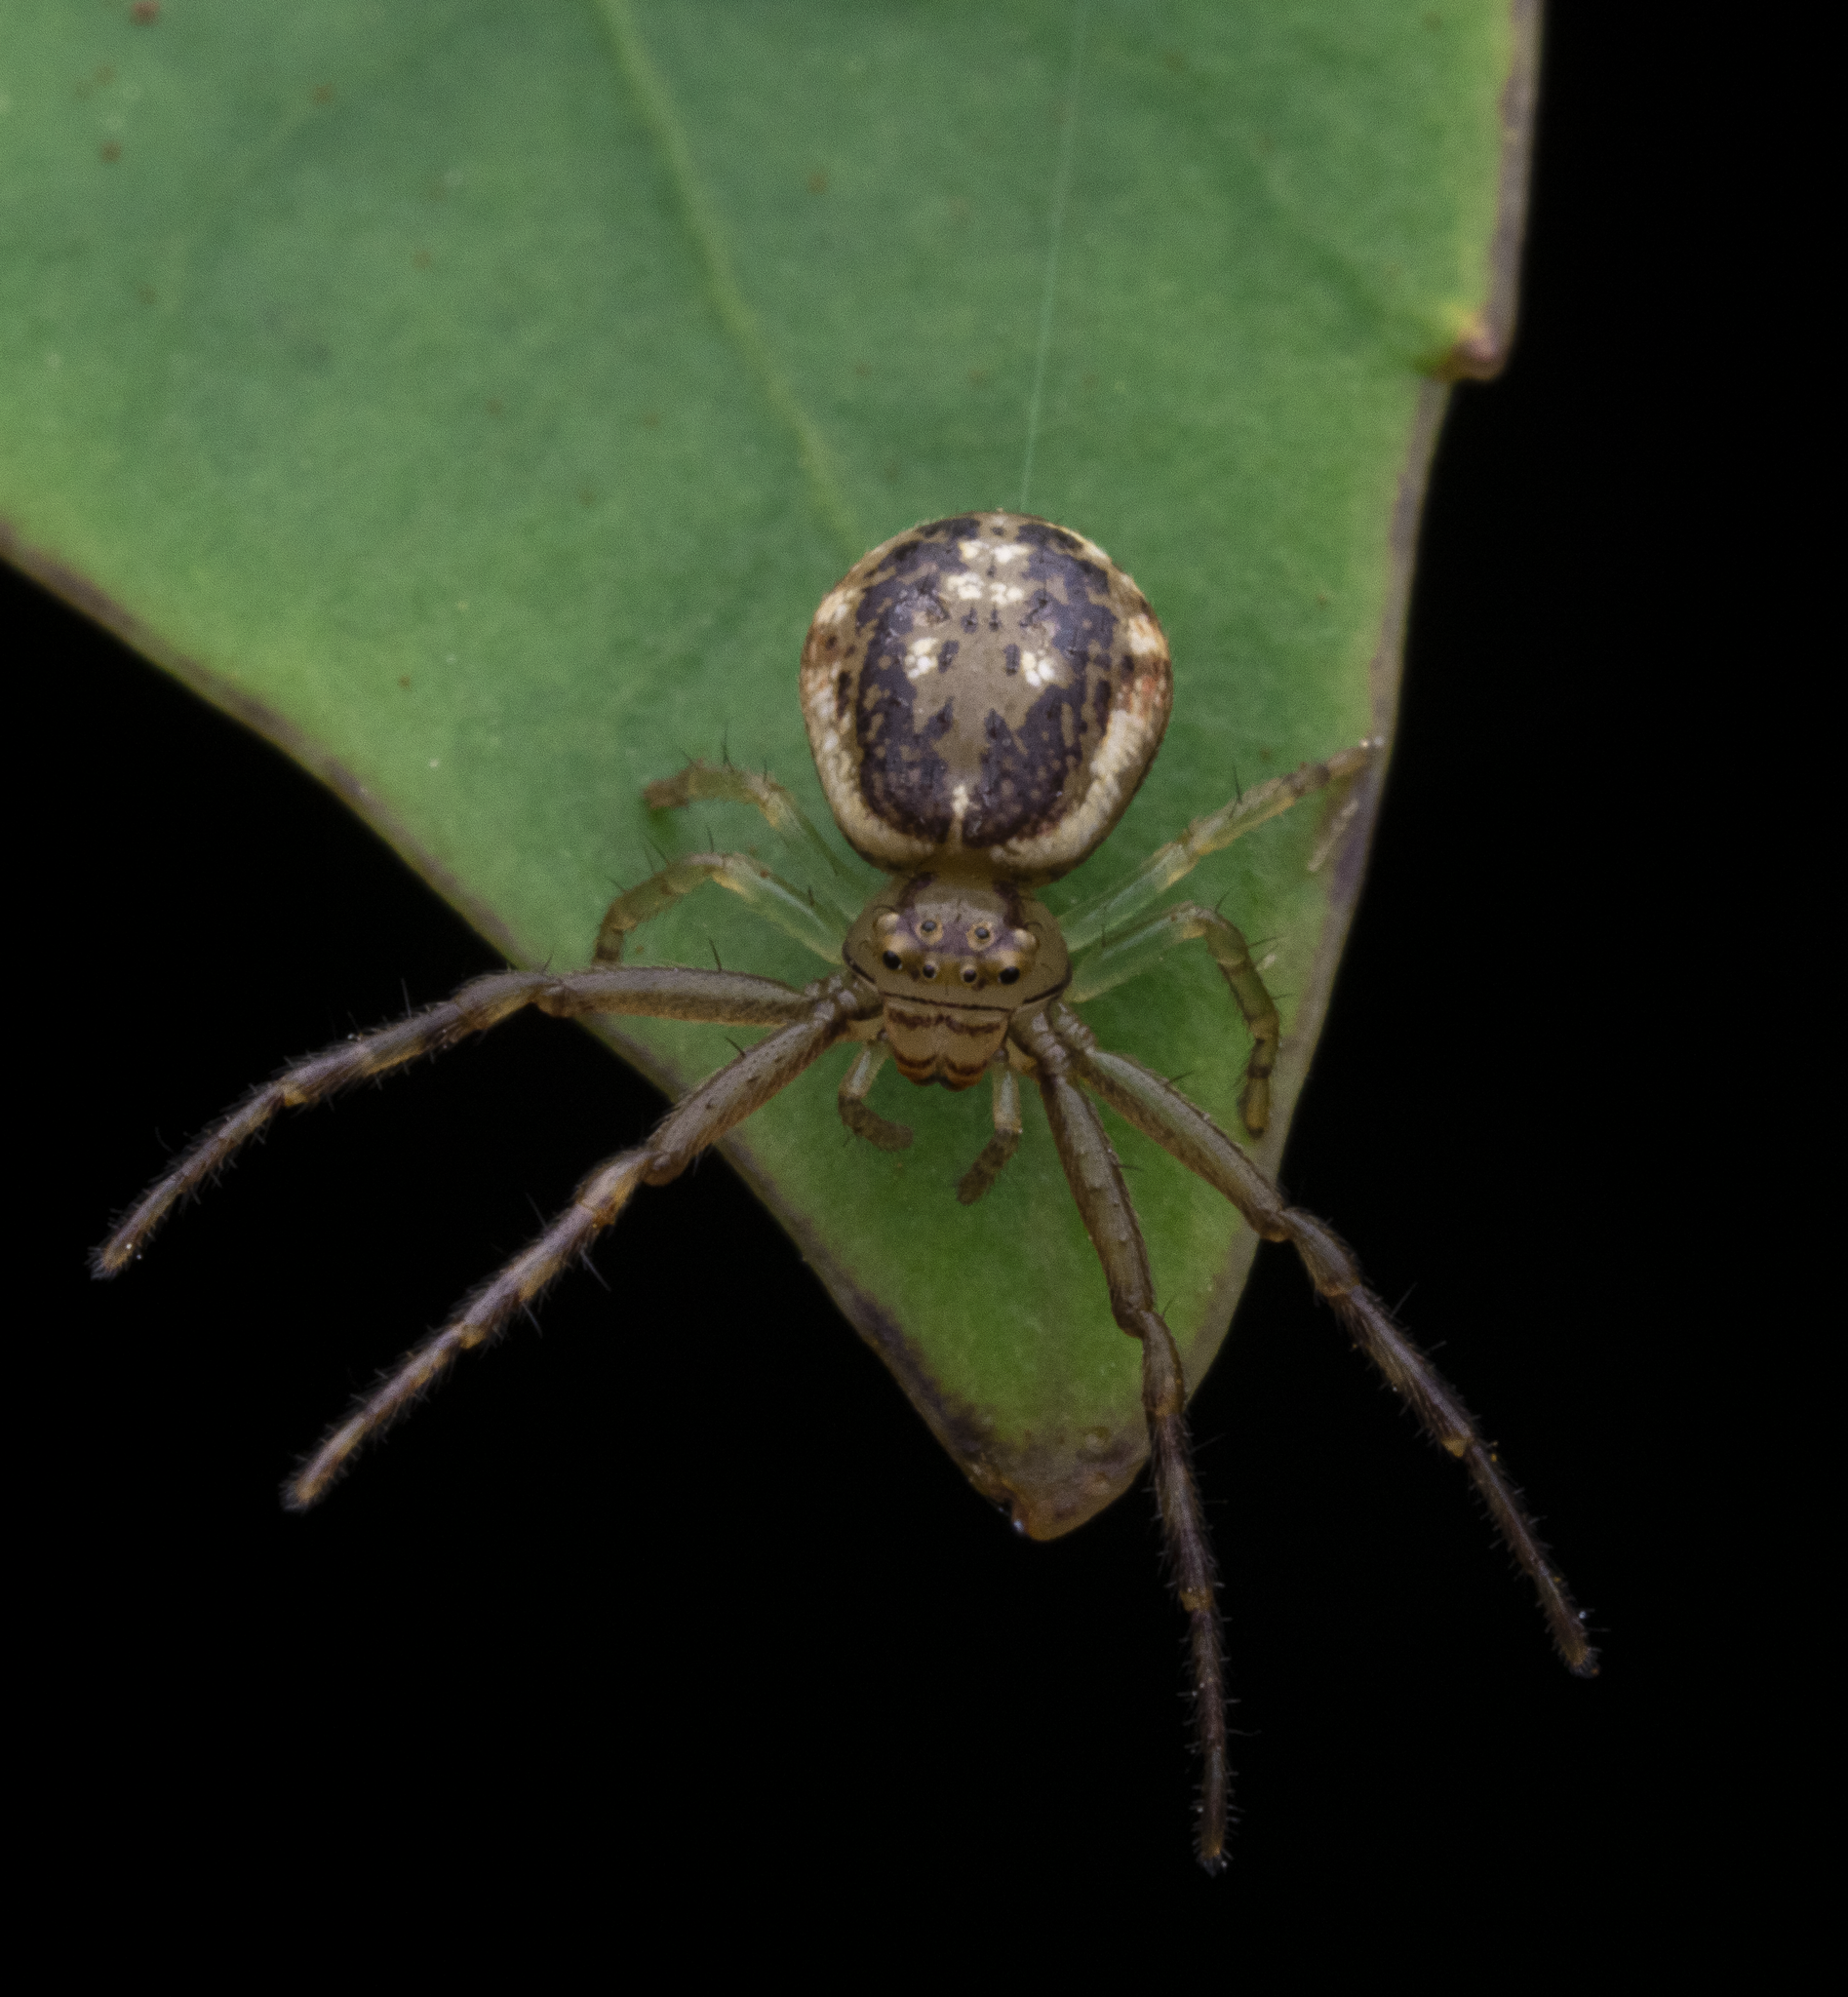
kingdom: Animalia
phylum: Arthropoda
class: Arachnida
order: Araneae
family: Thomisidae
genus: Diaea
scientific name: Diaea ambara
